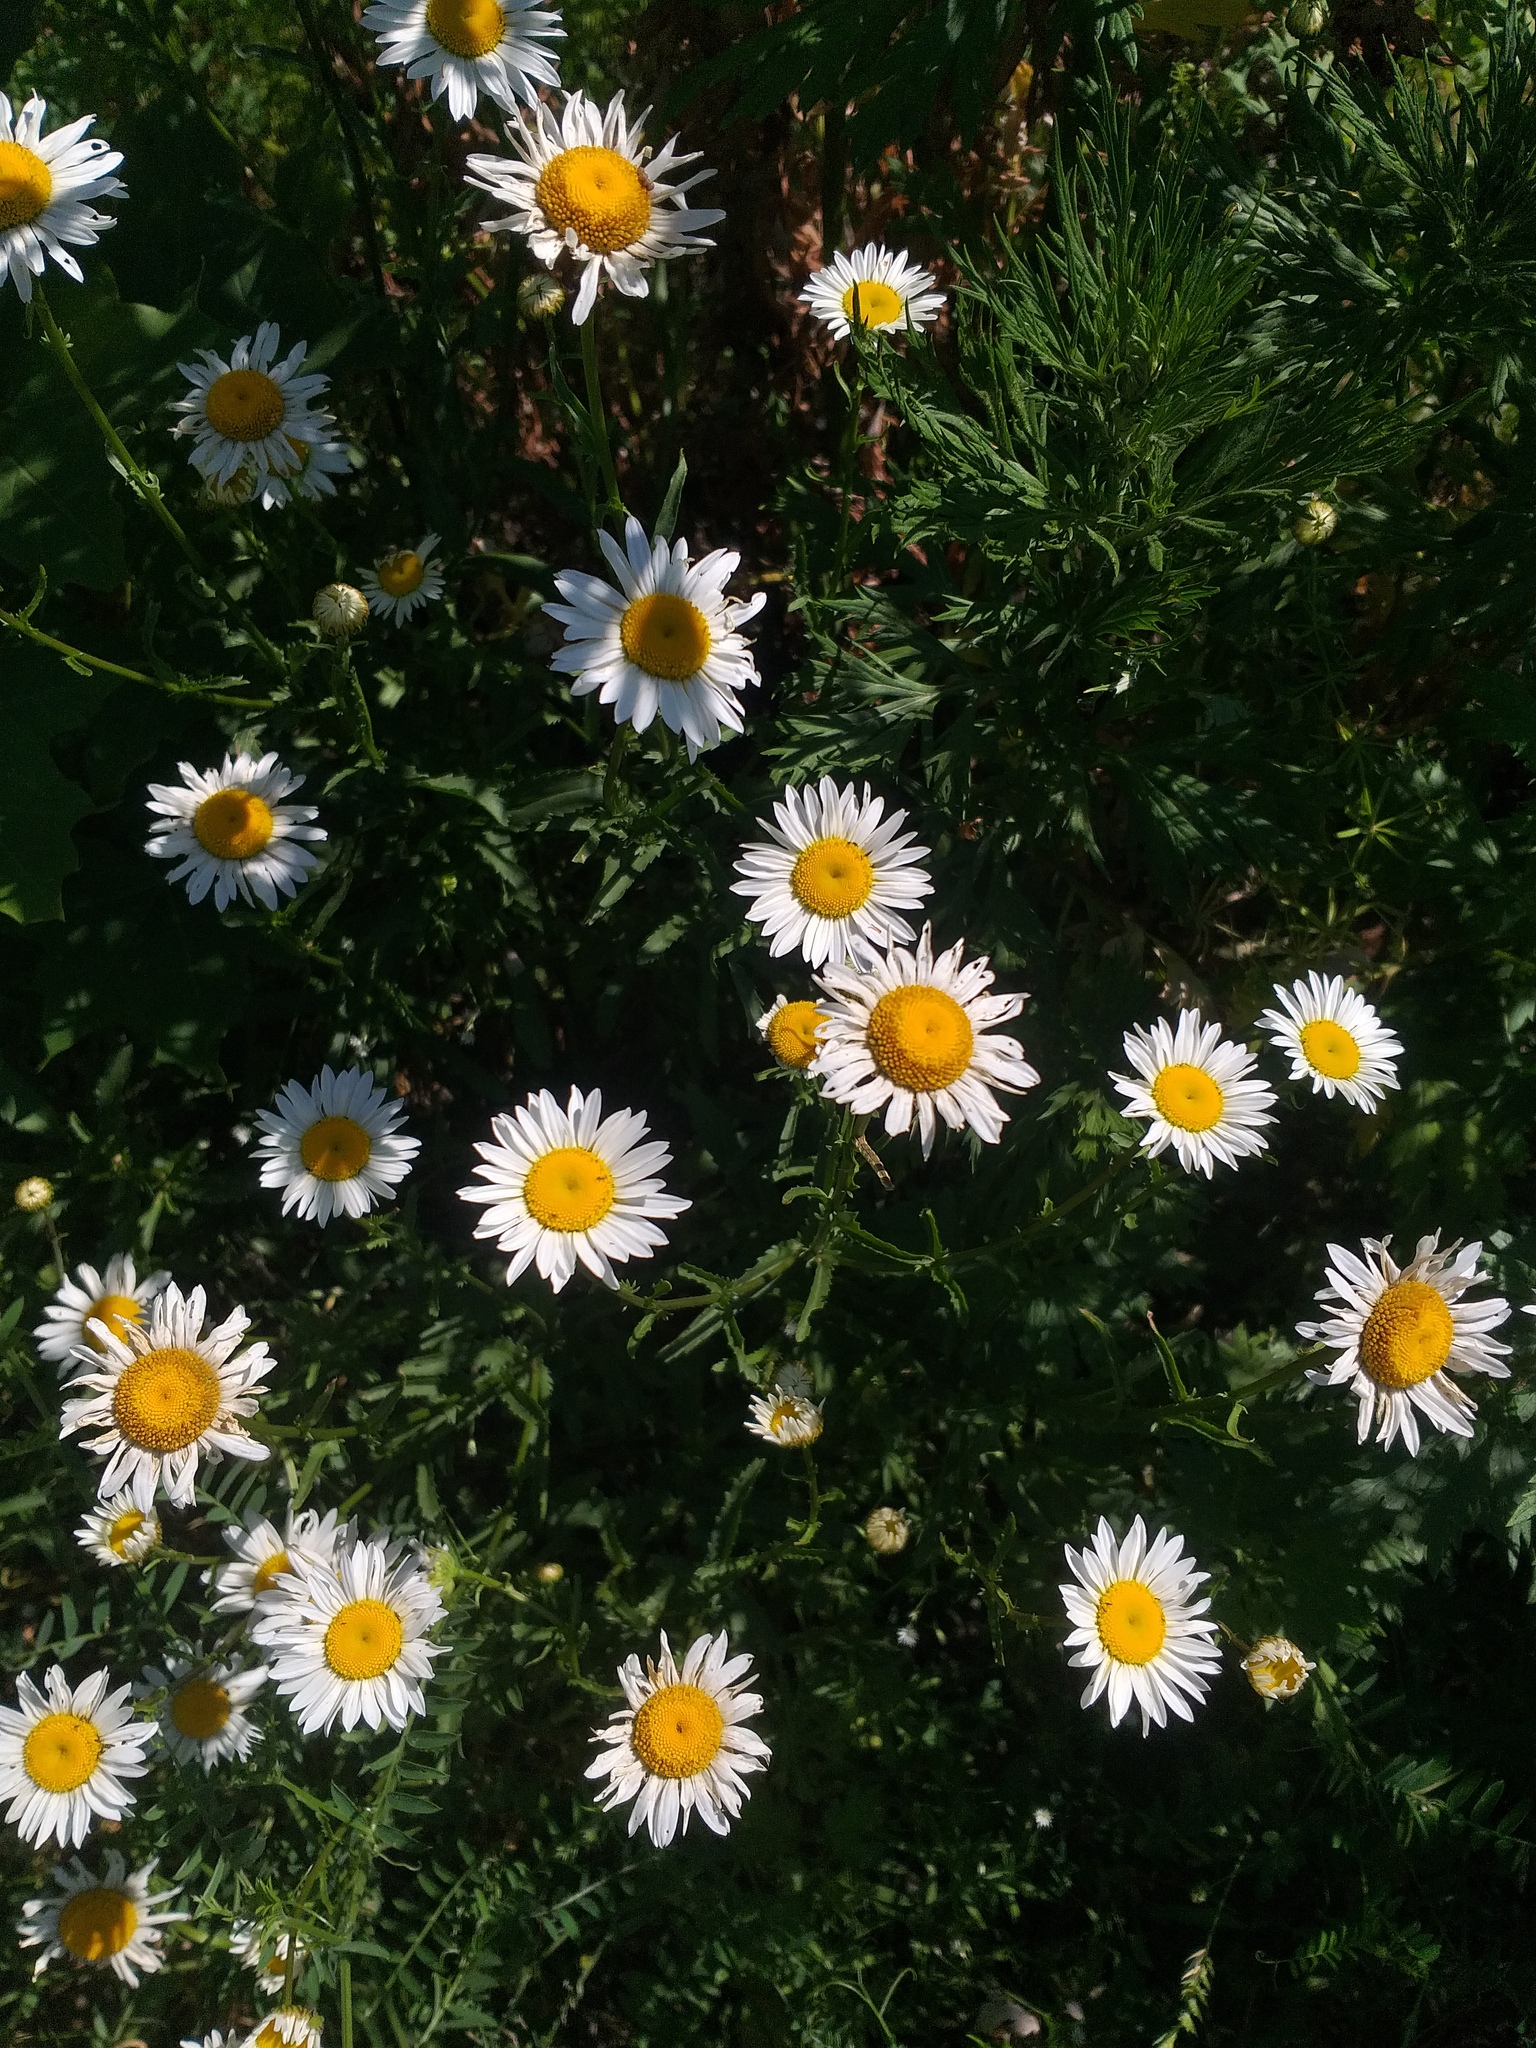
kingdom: Plantae
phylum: Tracheophyta
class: Magnoliopsida
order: Asterales
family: Asteraceae
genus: Leucanthemum
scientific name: Leucanthemum vulgare
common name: Oxeye daisy
